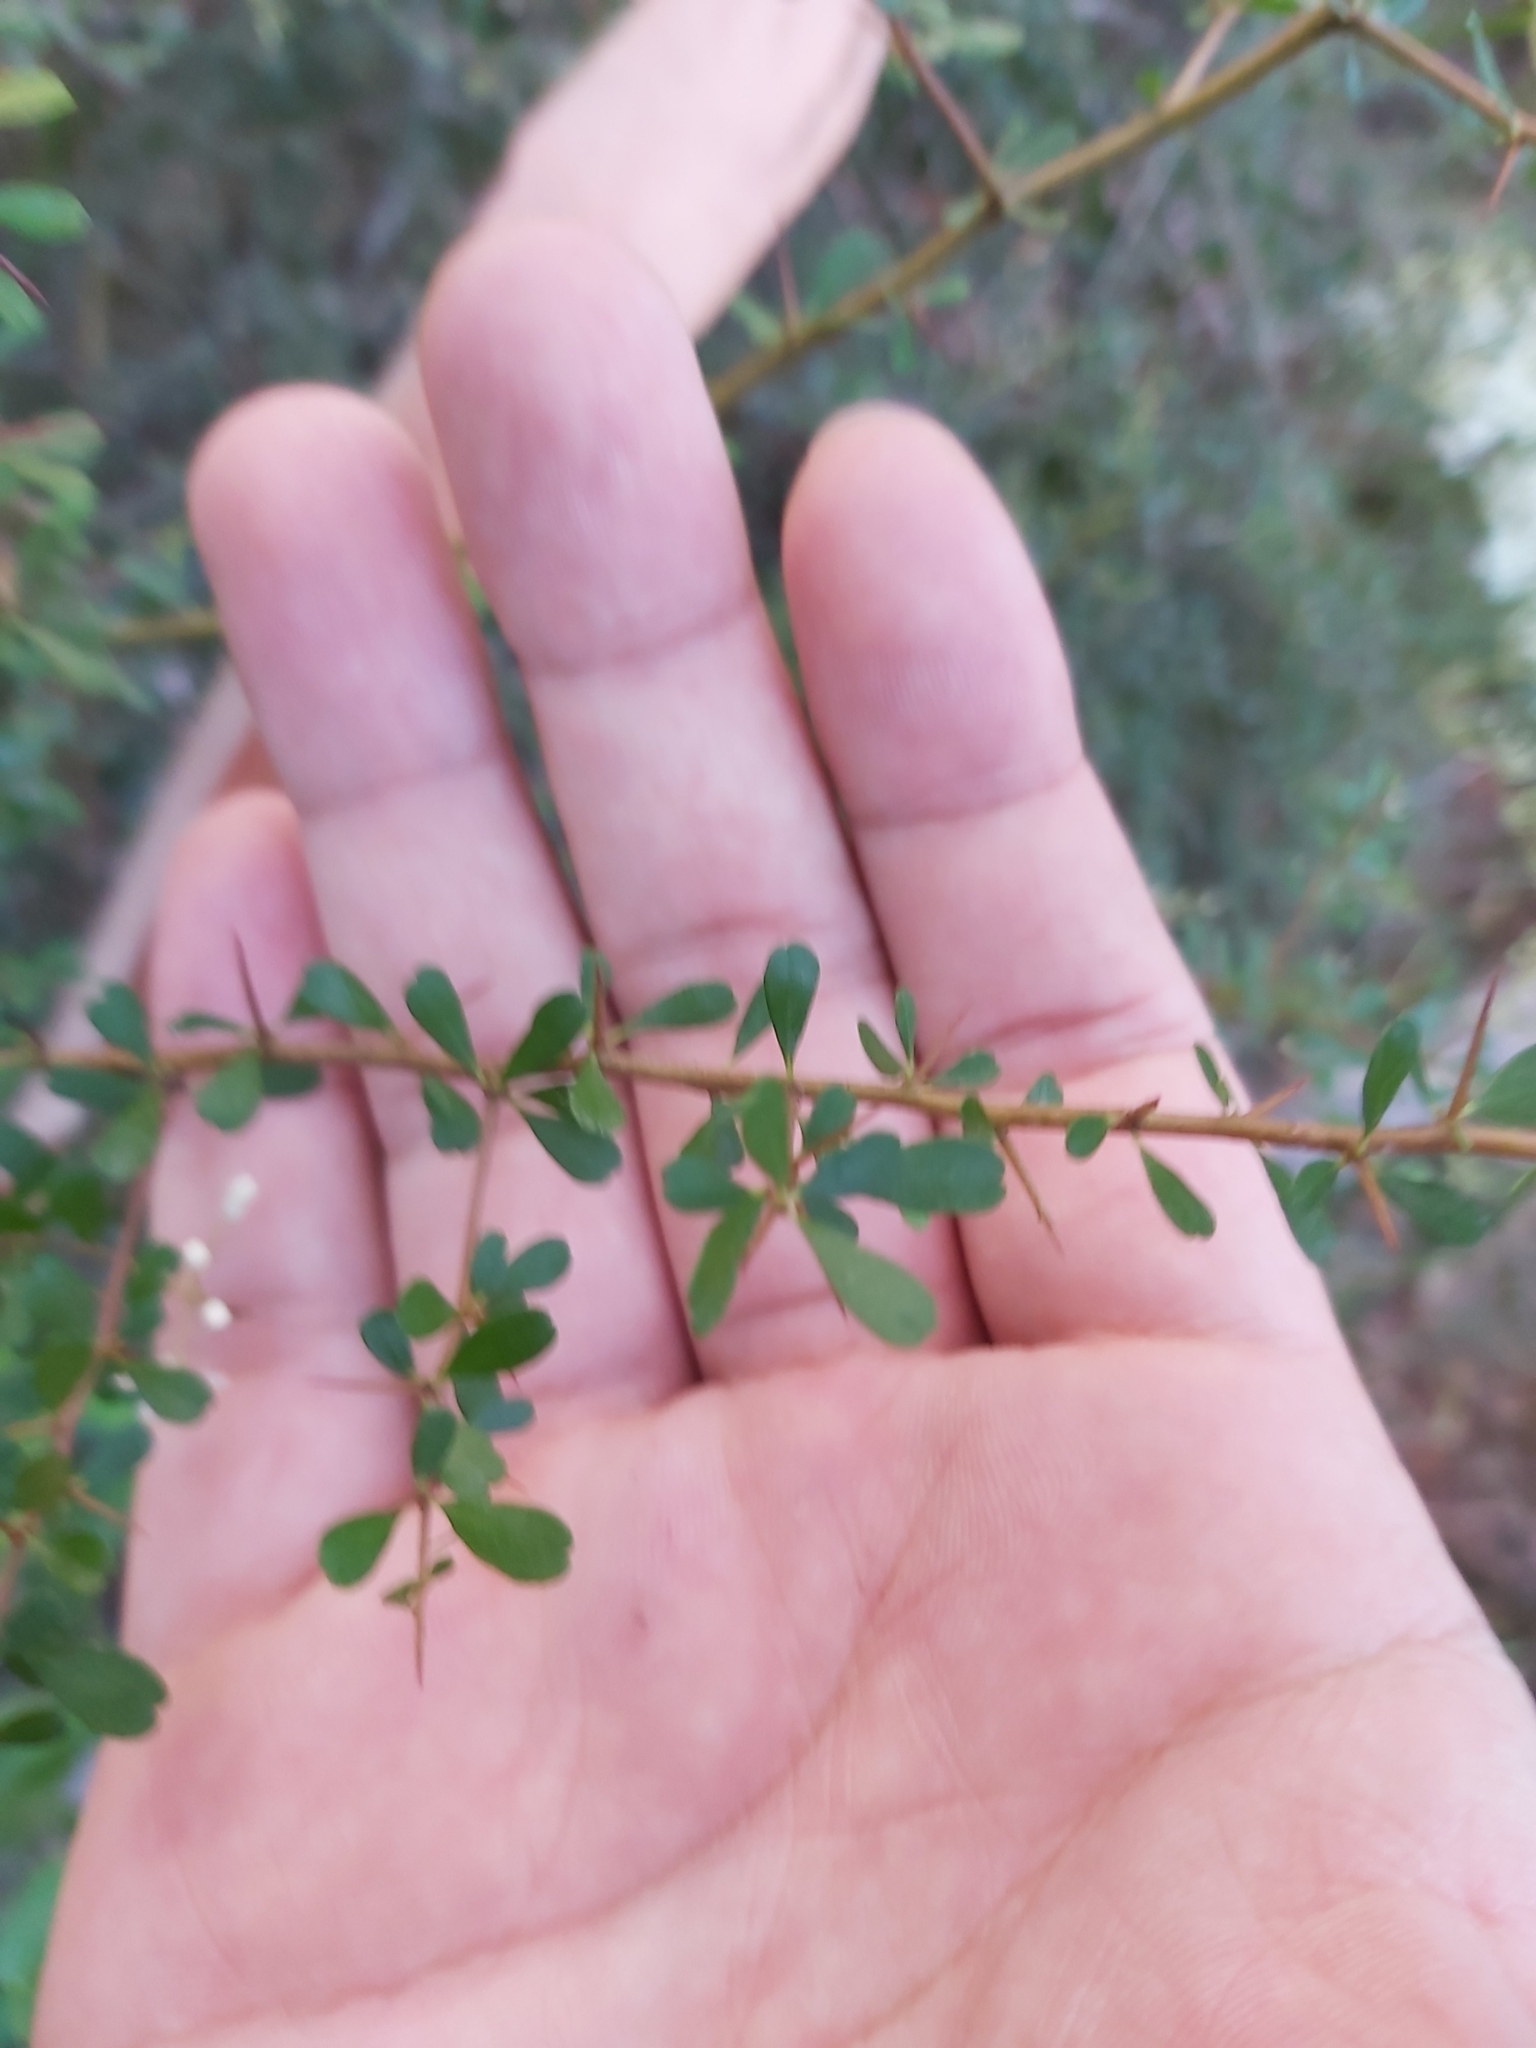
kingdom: Plantae
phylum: Tracheophyta
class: Magnoliopsida
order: Apiales
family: Pittosporaceae
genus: Bursaria
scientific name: Bursaria spinosa
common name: Australian blackthorn
